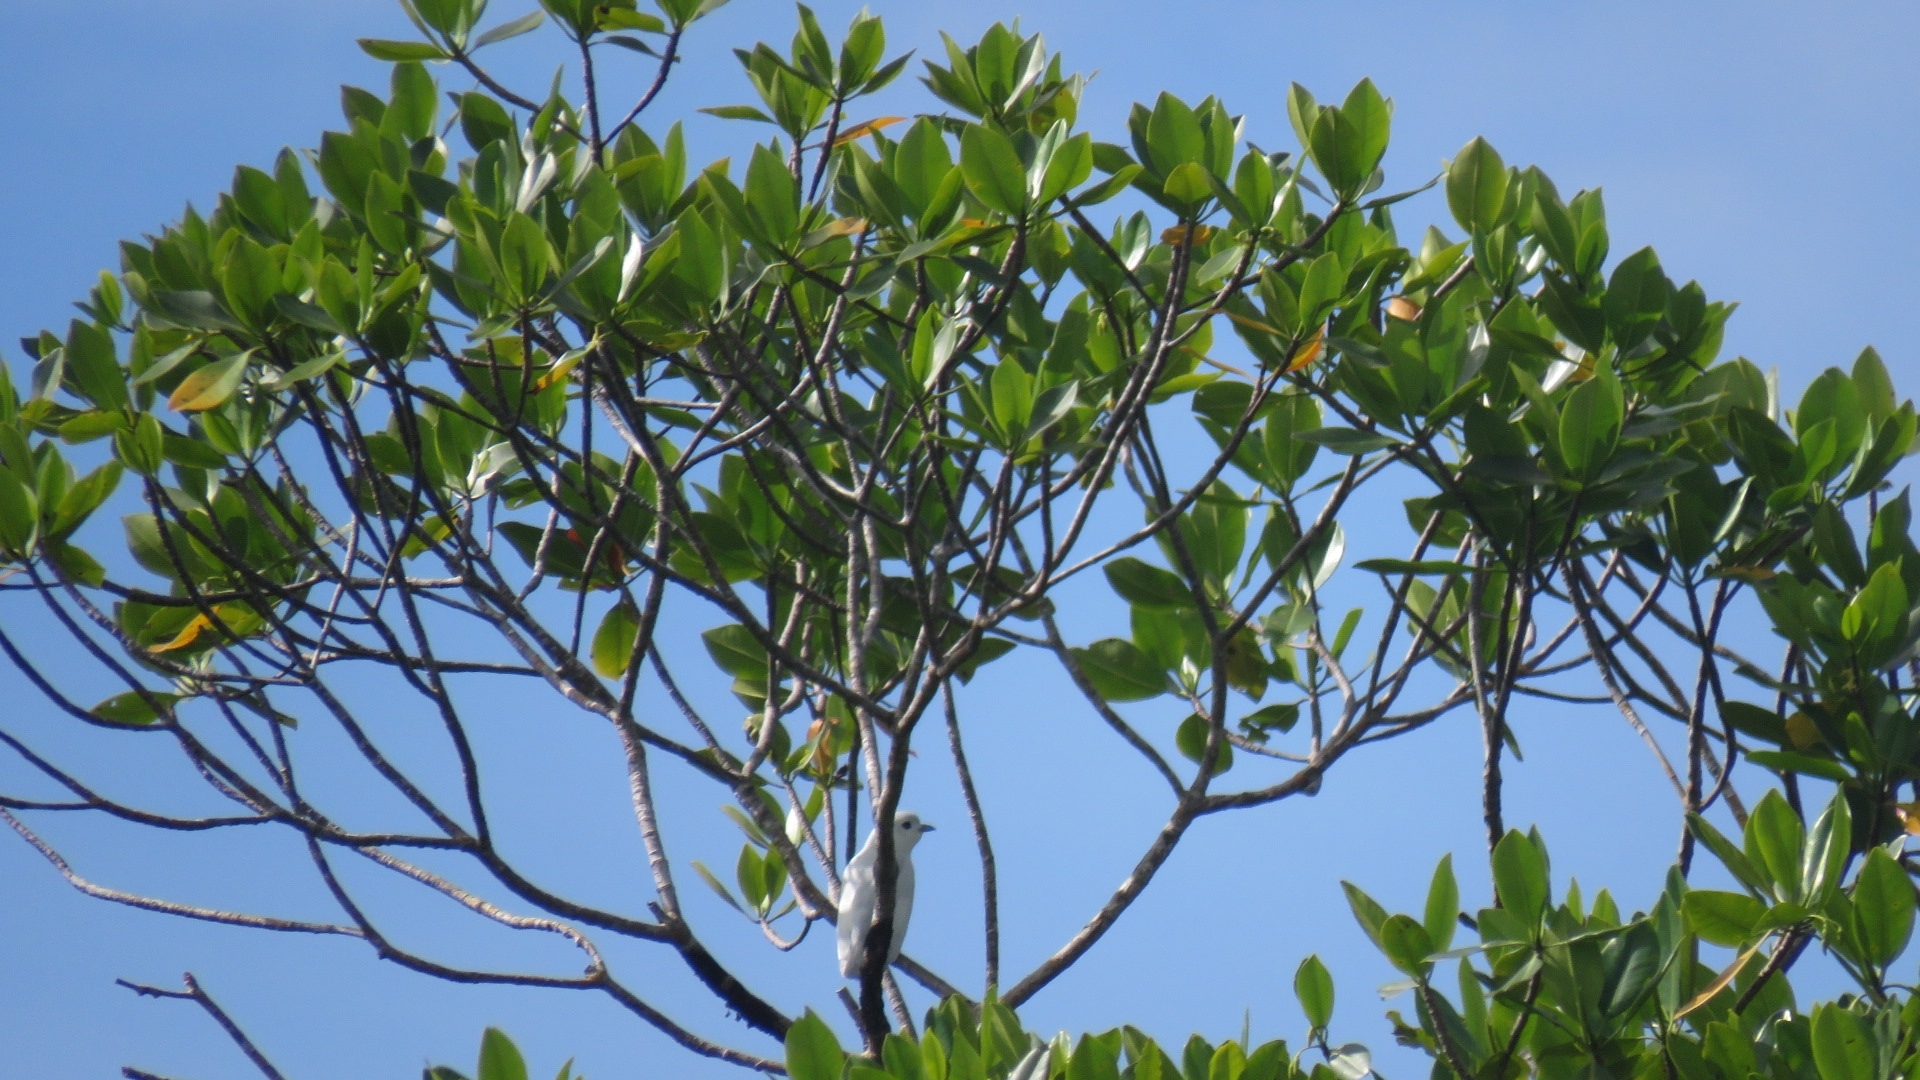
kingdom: Animalia
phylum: Chordata
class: Aves
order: Passeriformes
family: Cotingidae
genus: Carpodectes
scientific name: Carpodectes nitidus
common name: Snowy cotinga
